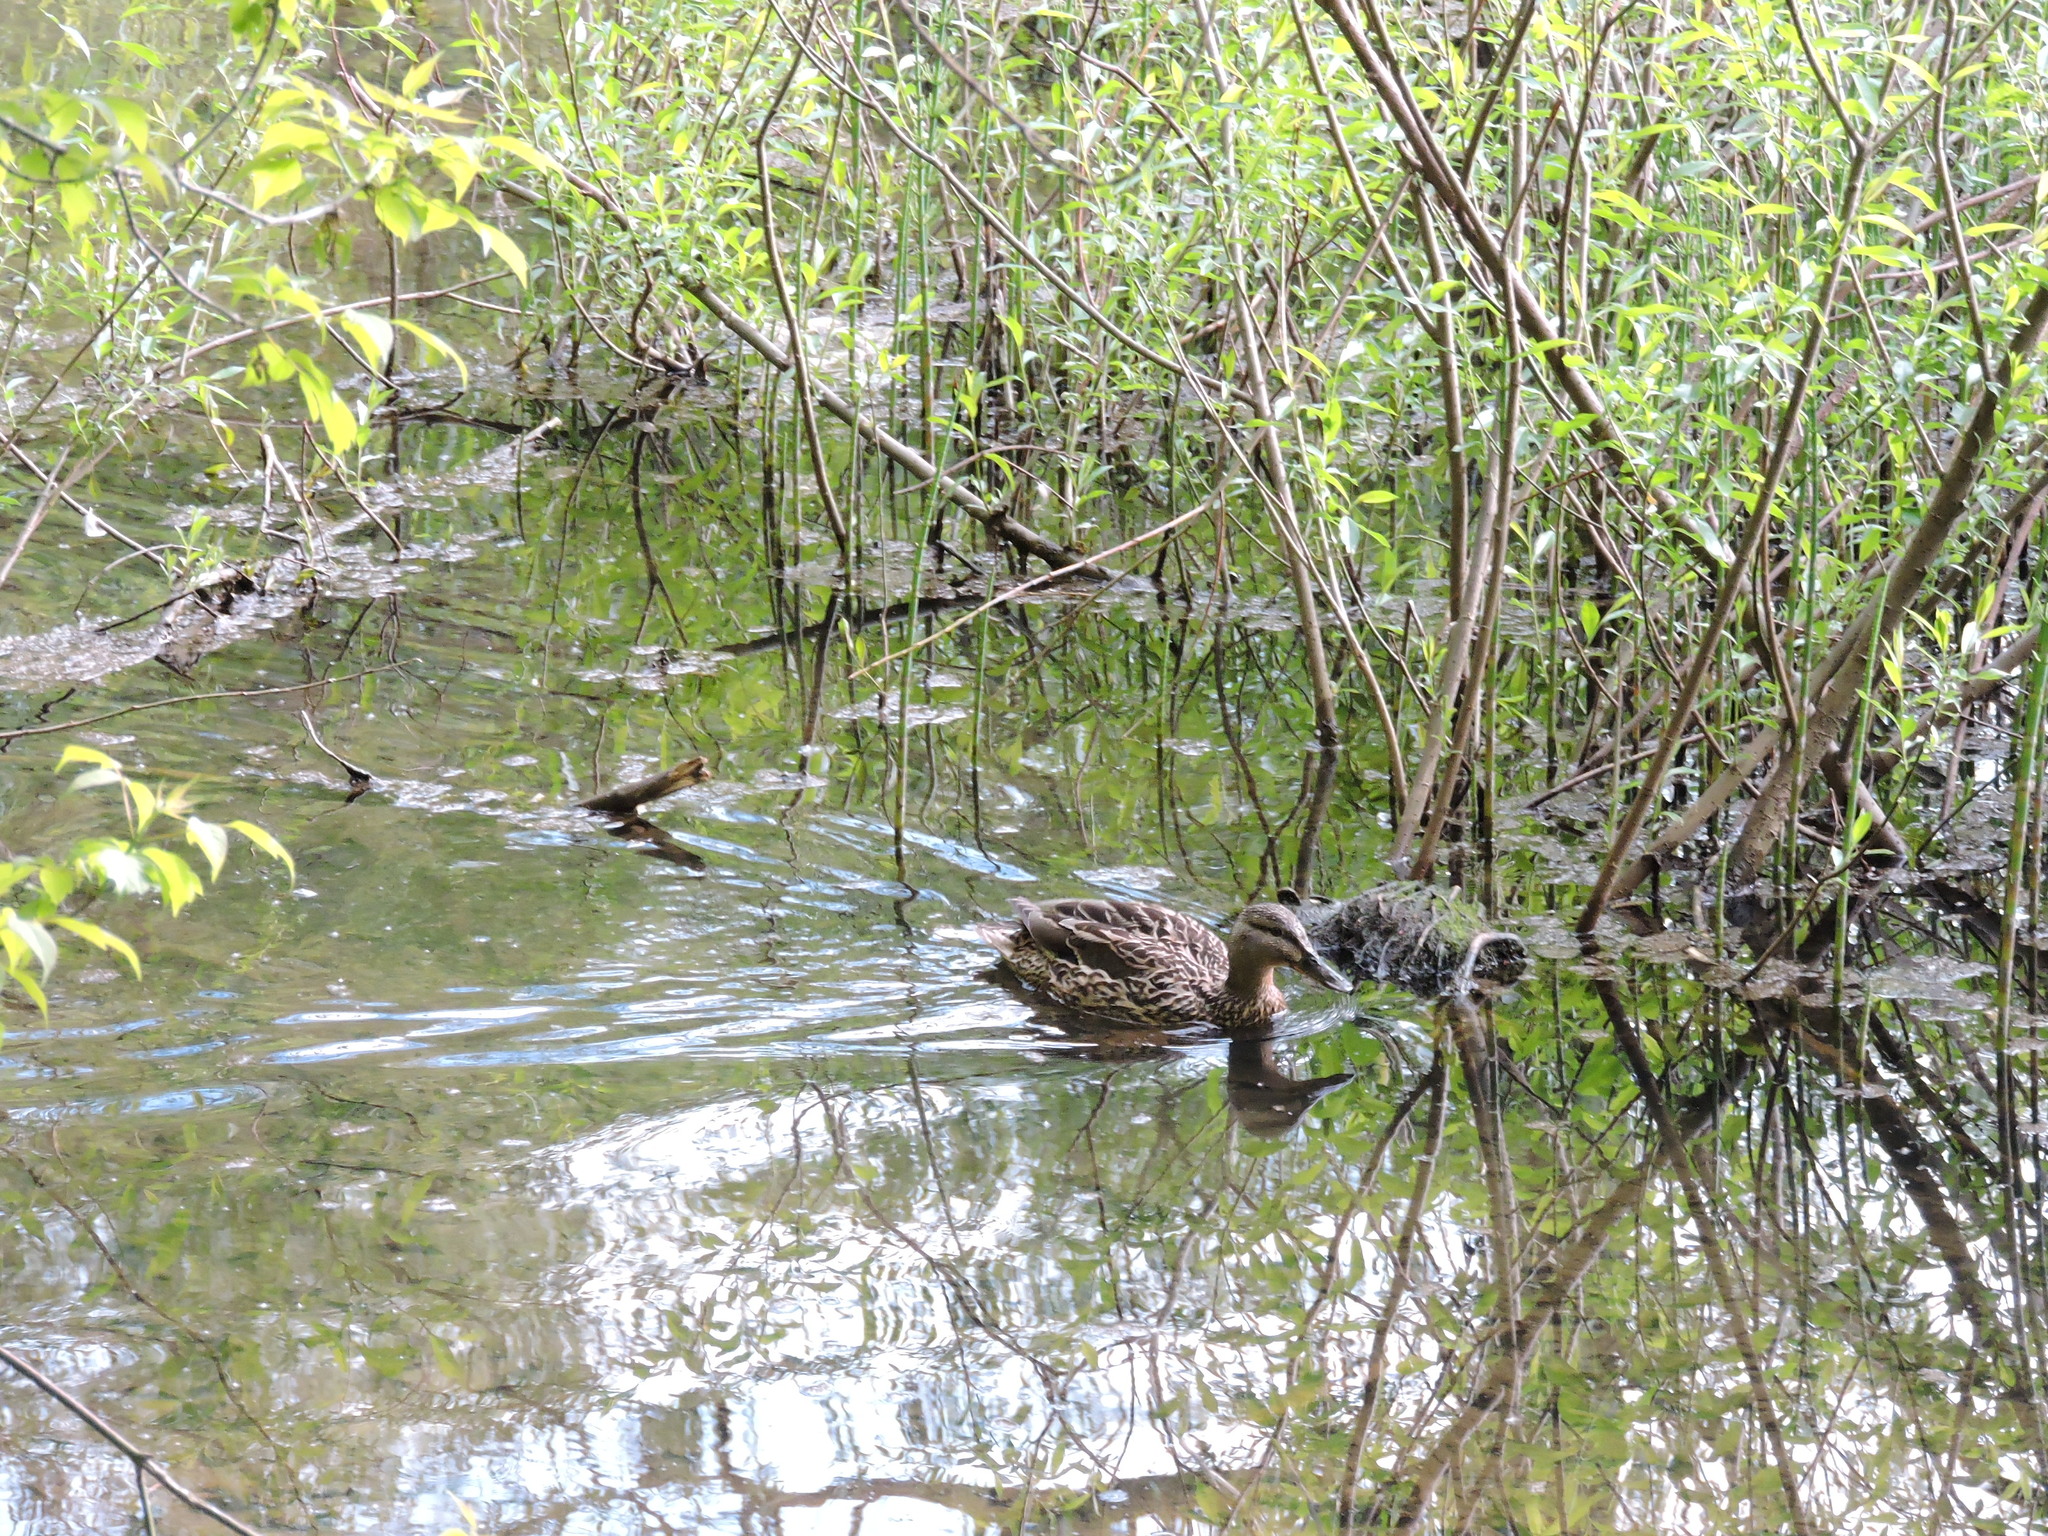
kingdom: Animalia
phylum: Chordata
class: Aves
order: Anseriformes
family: Anatidae
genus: Anas
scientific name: Anas platyrhynchos
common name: Mallard
